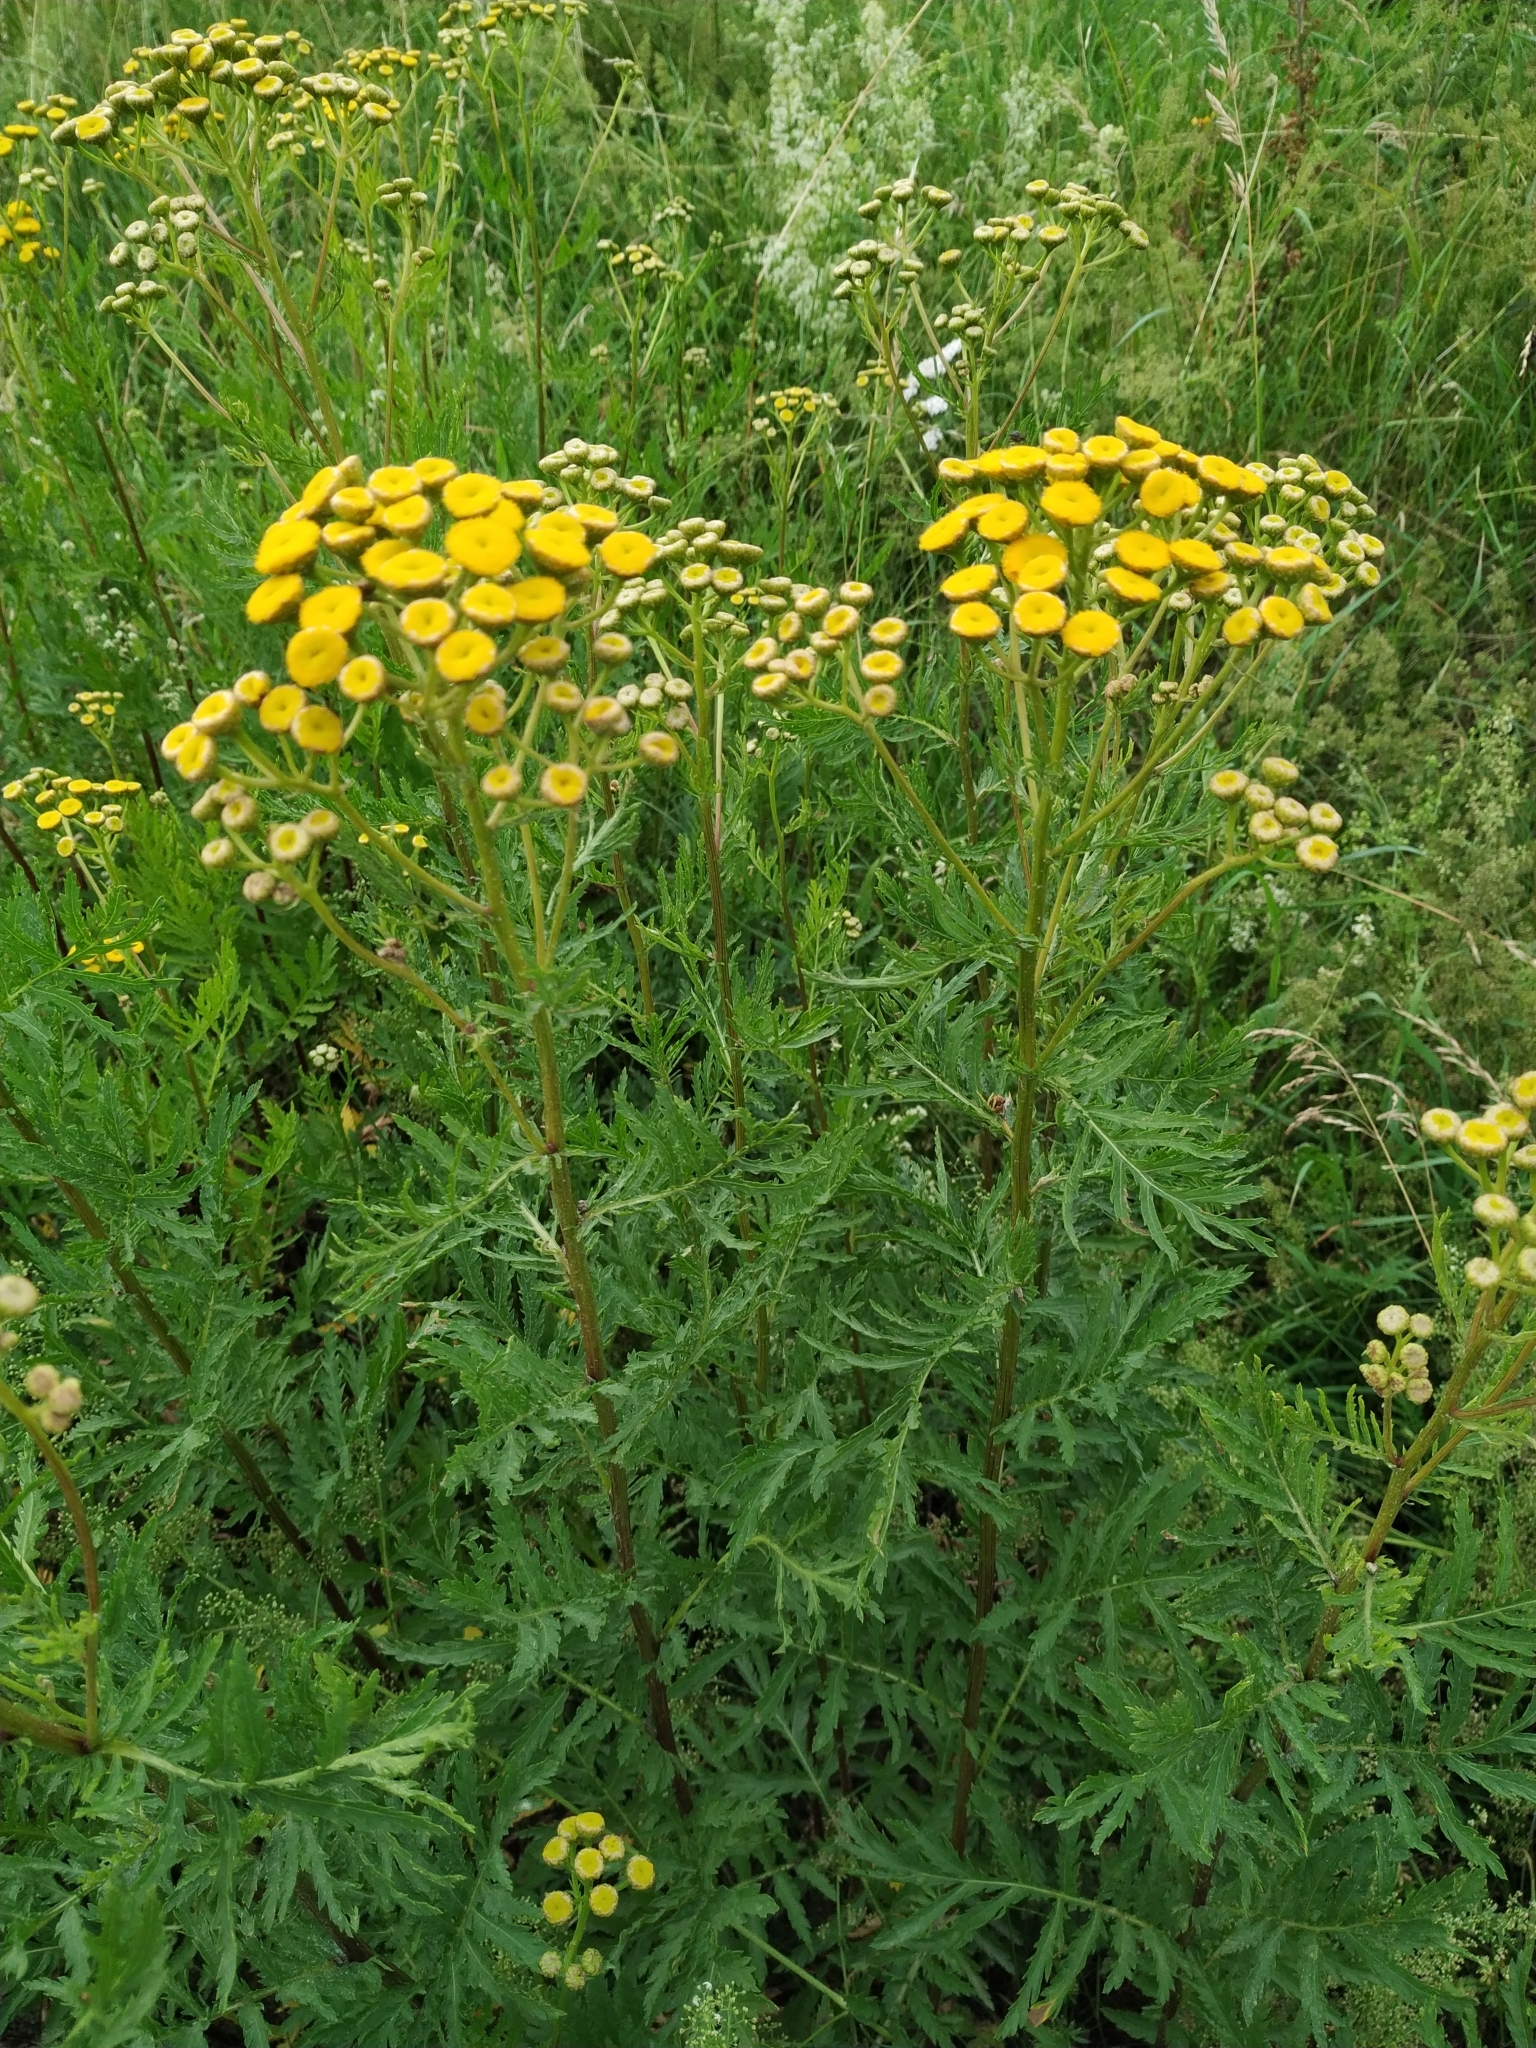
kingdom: Plantae
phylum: Tracheophyta
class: Magnoliopsida
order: Asterales
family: Asteraceae
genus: Tanacetum
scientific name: Tanacetum vulgare
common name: Common tansy
